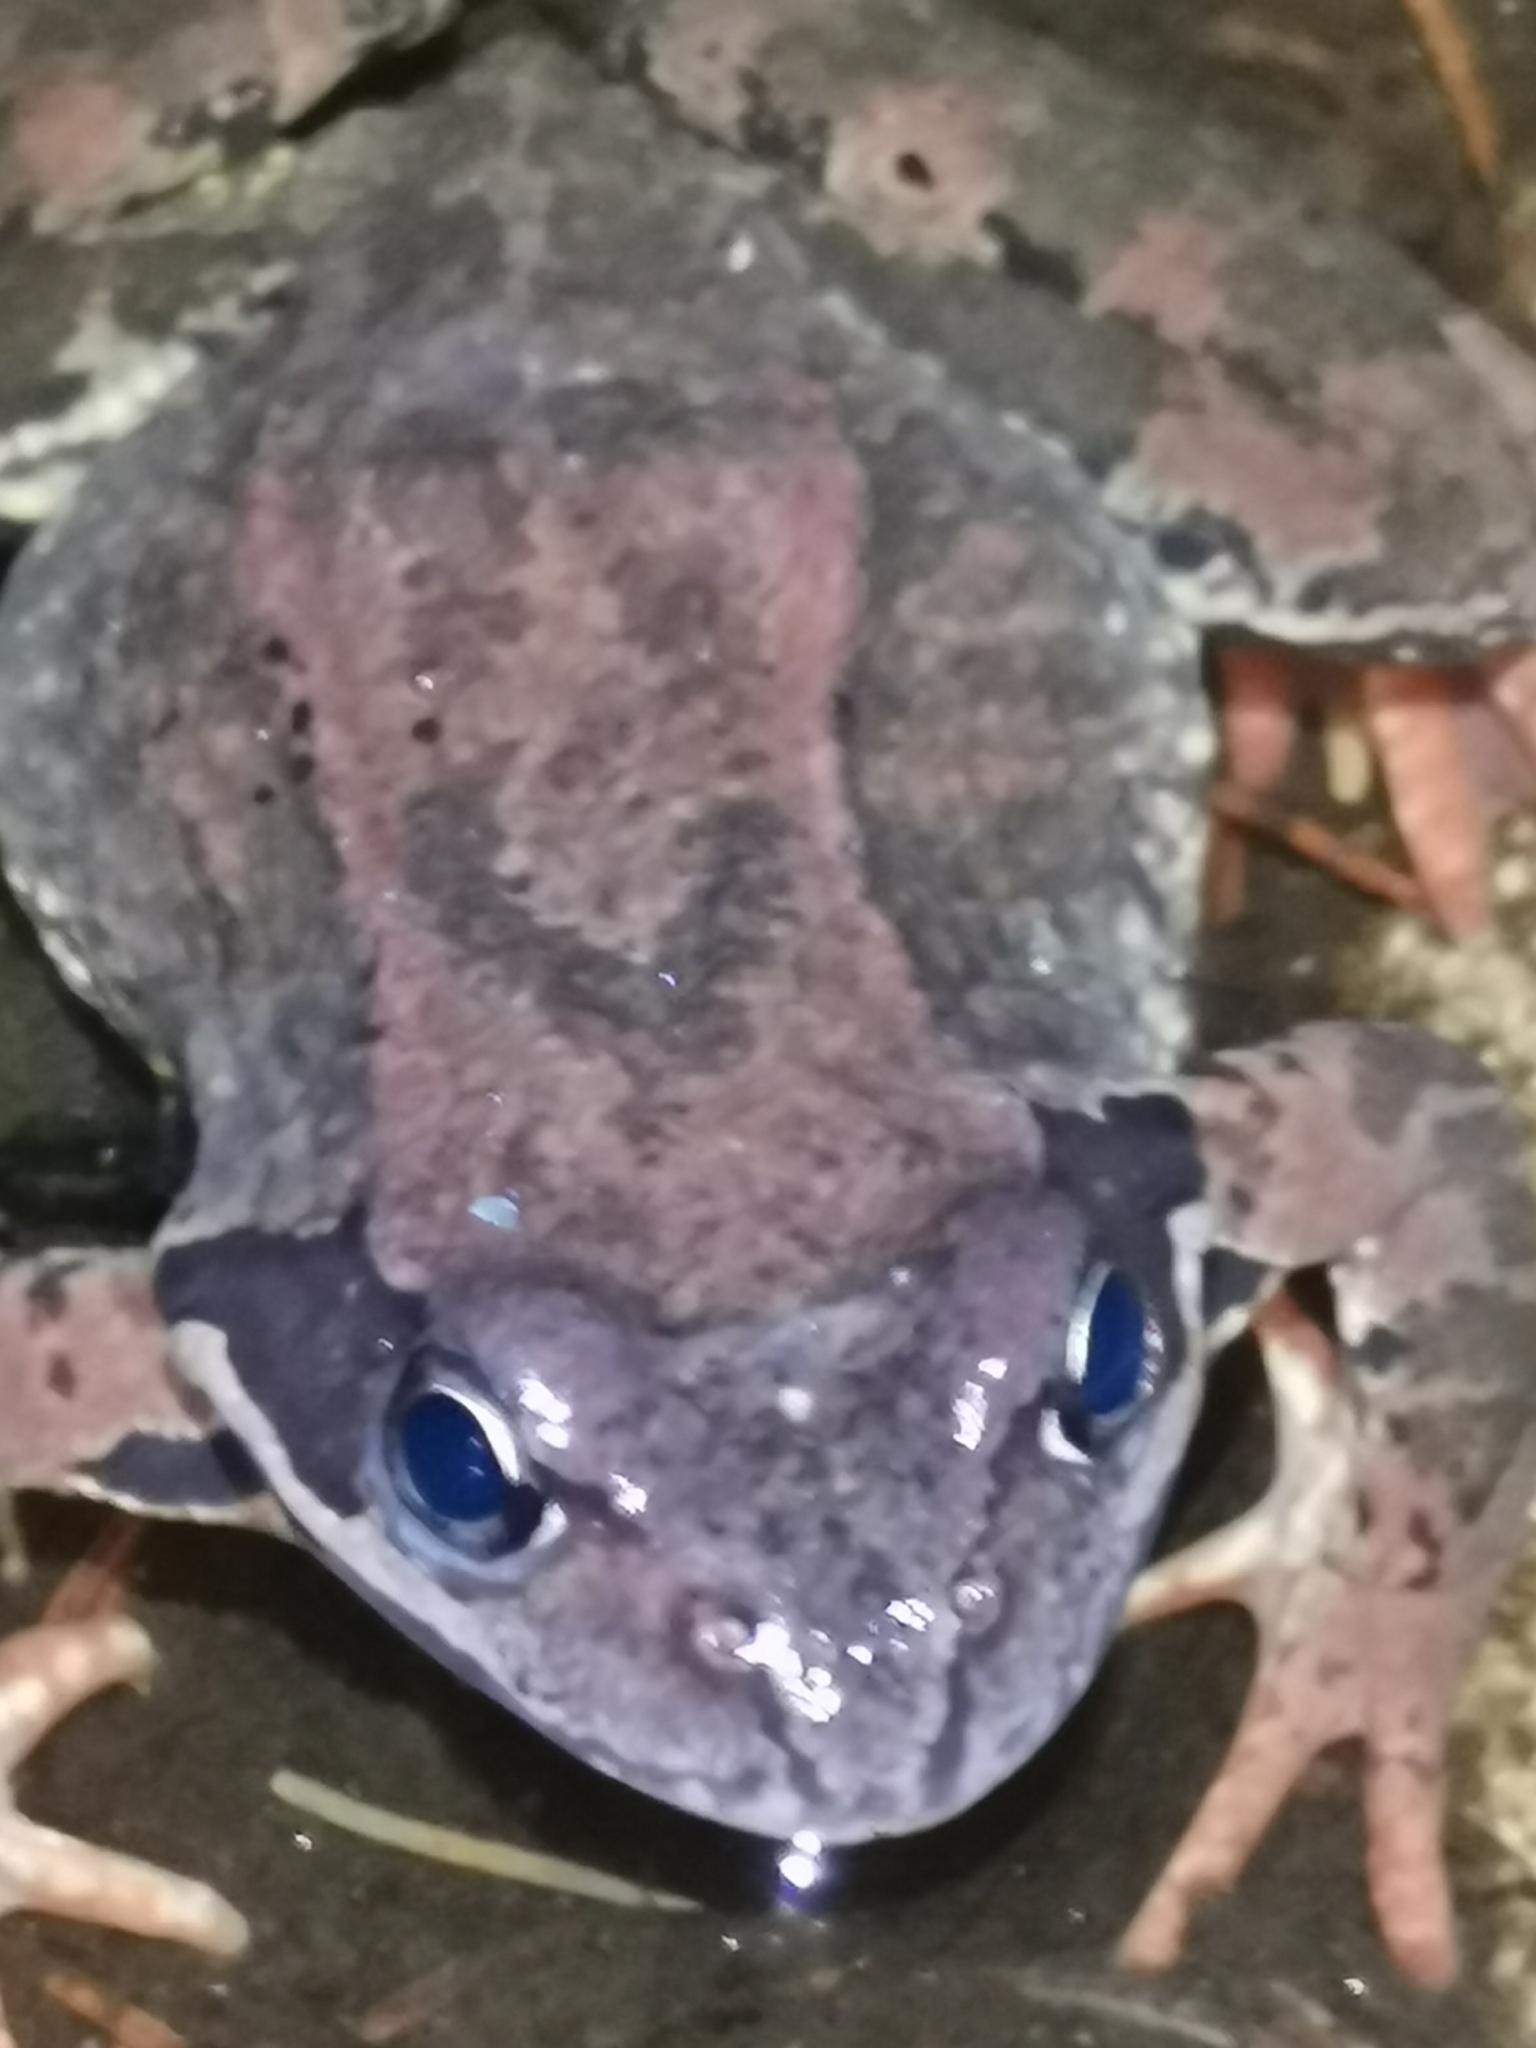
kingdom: Animalia
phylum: Chordata
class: Amphibia
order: Anura
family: Ranidae
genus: Rana
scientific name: Rana temporaria
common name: Common frog
